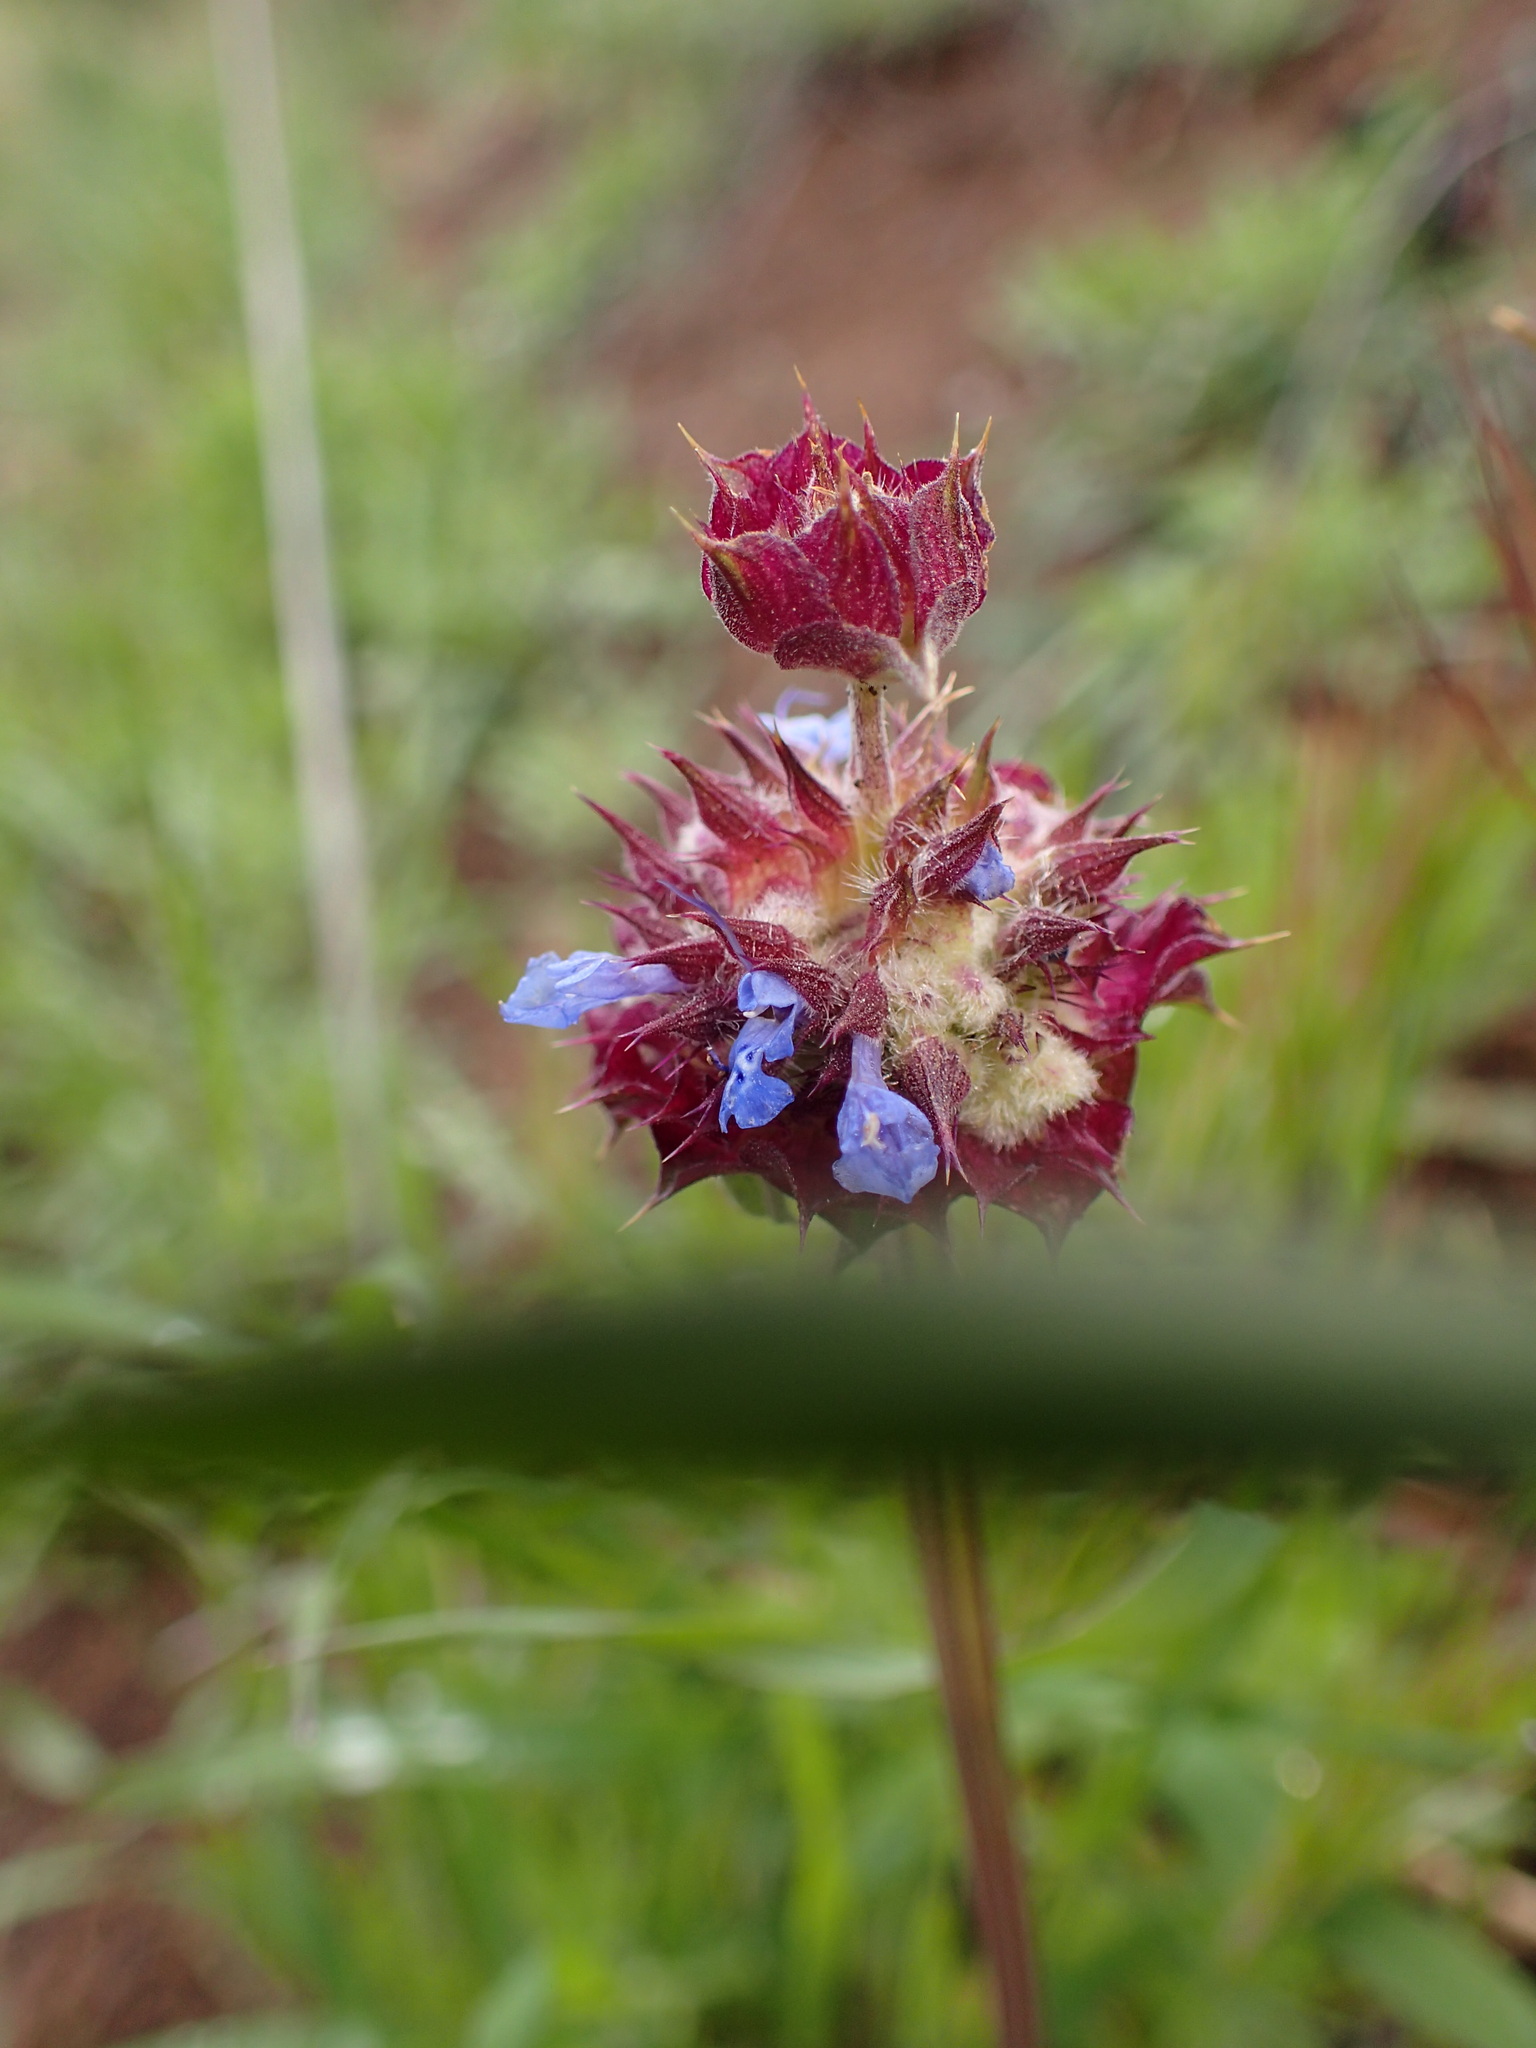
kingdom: Plantae
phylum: Tracheophyta
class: Magnoliopsida
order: Lamiales
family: Lamiaceae
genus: Salvia
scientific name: Salvia columbariae
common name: Chia
